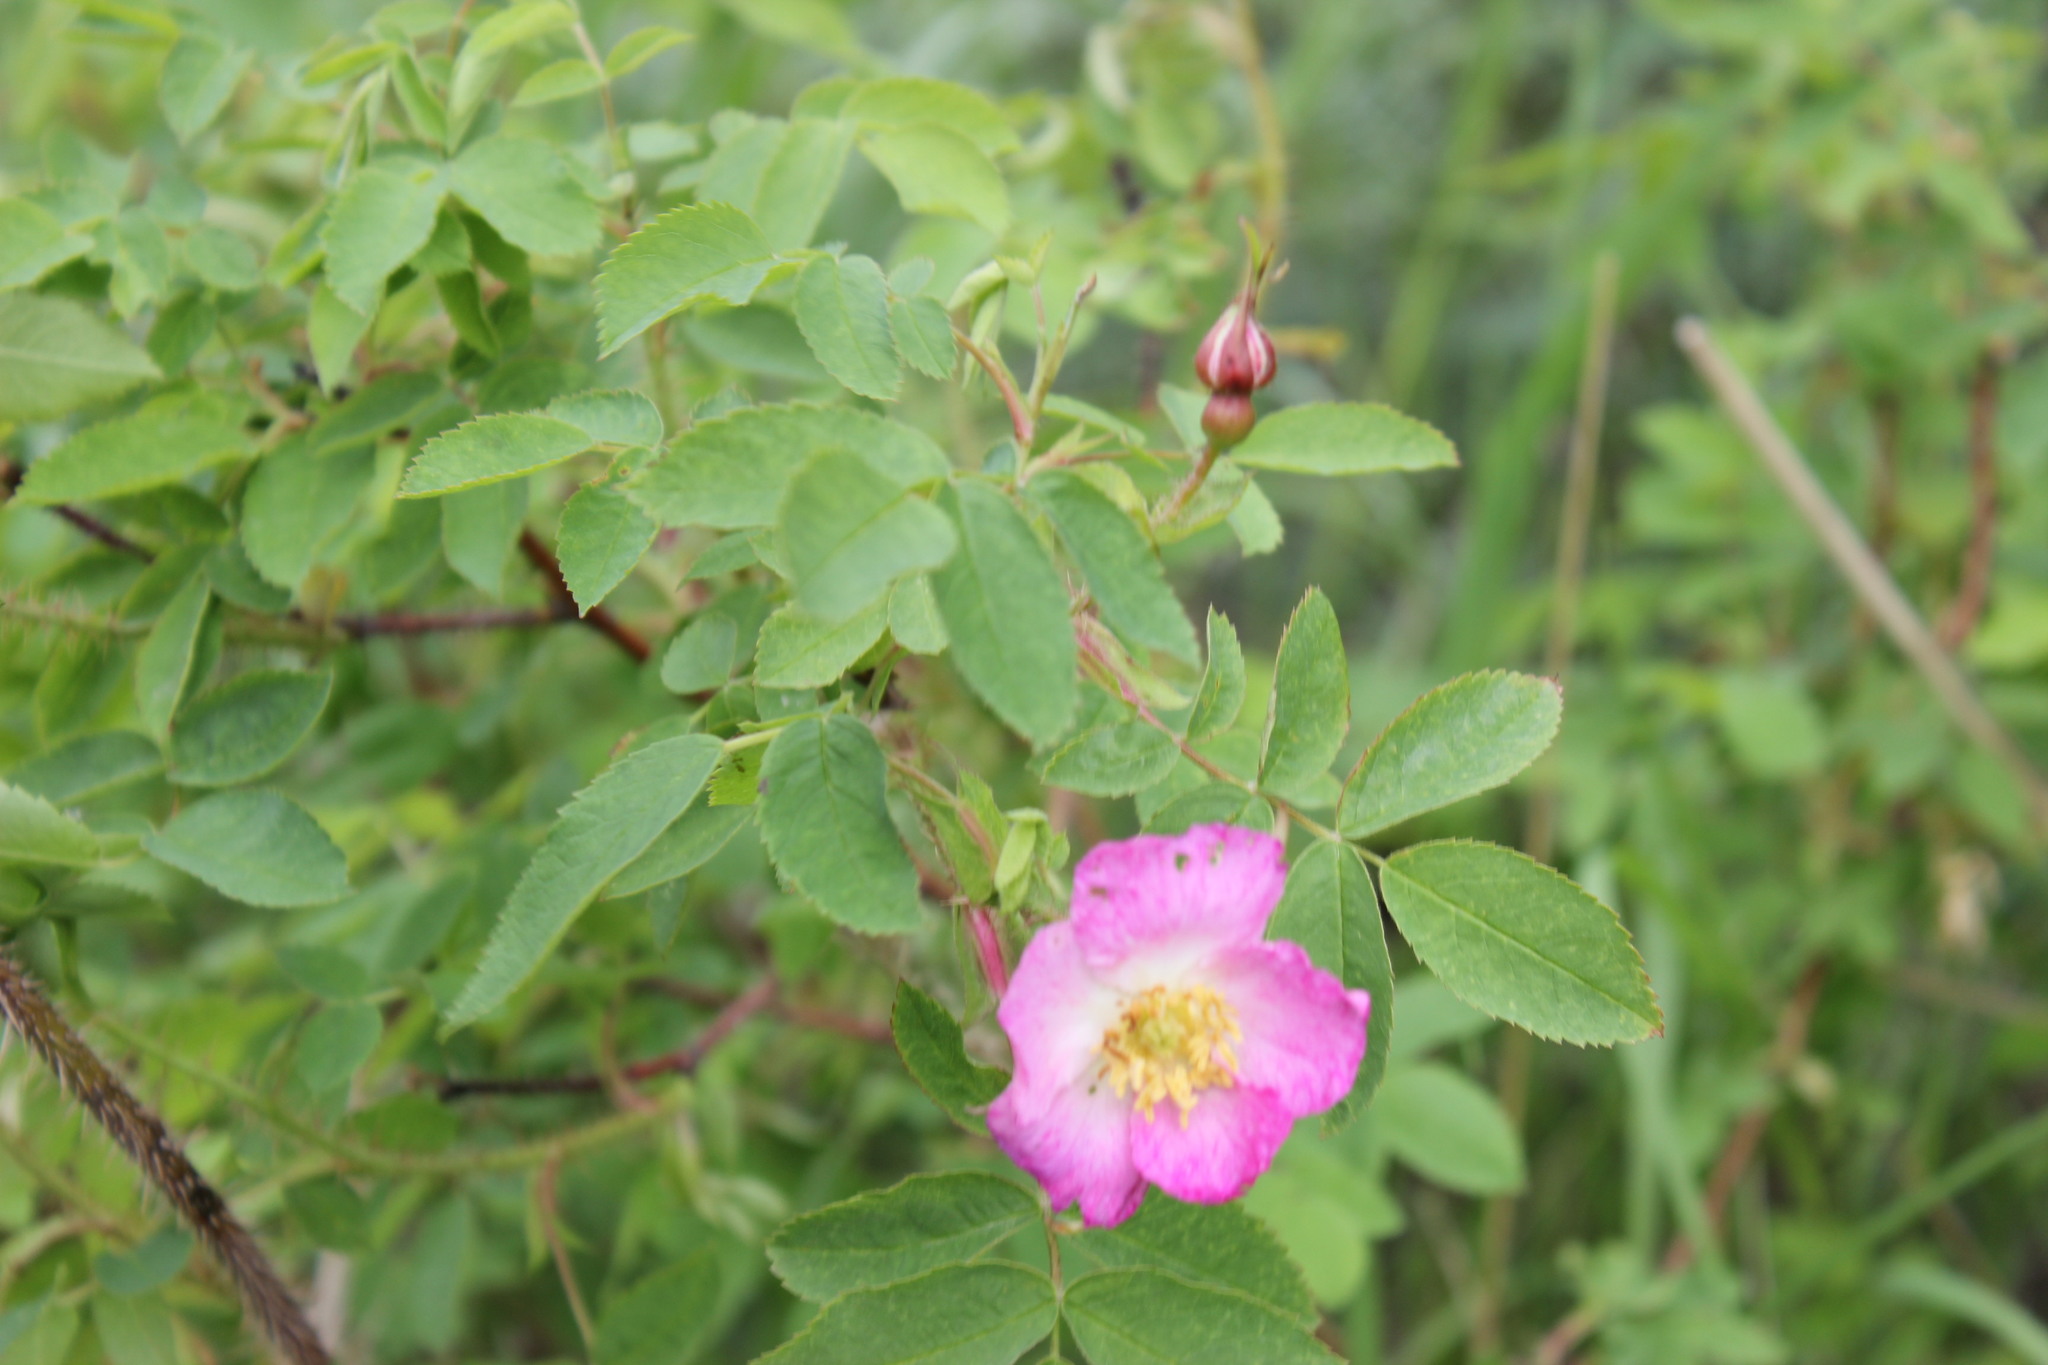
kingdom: Plantae
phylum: Tracheophyta
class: Magnoliopsida
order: Rosales
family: Rosaceae
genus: Rosa
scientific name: Rosa acicularis
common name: Prickly rose
